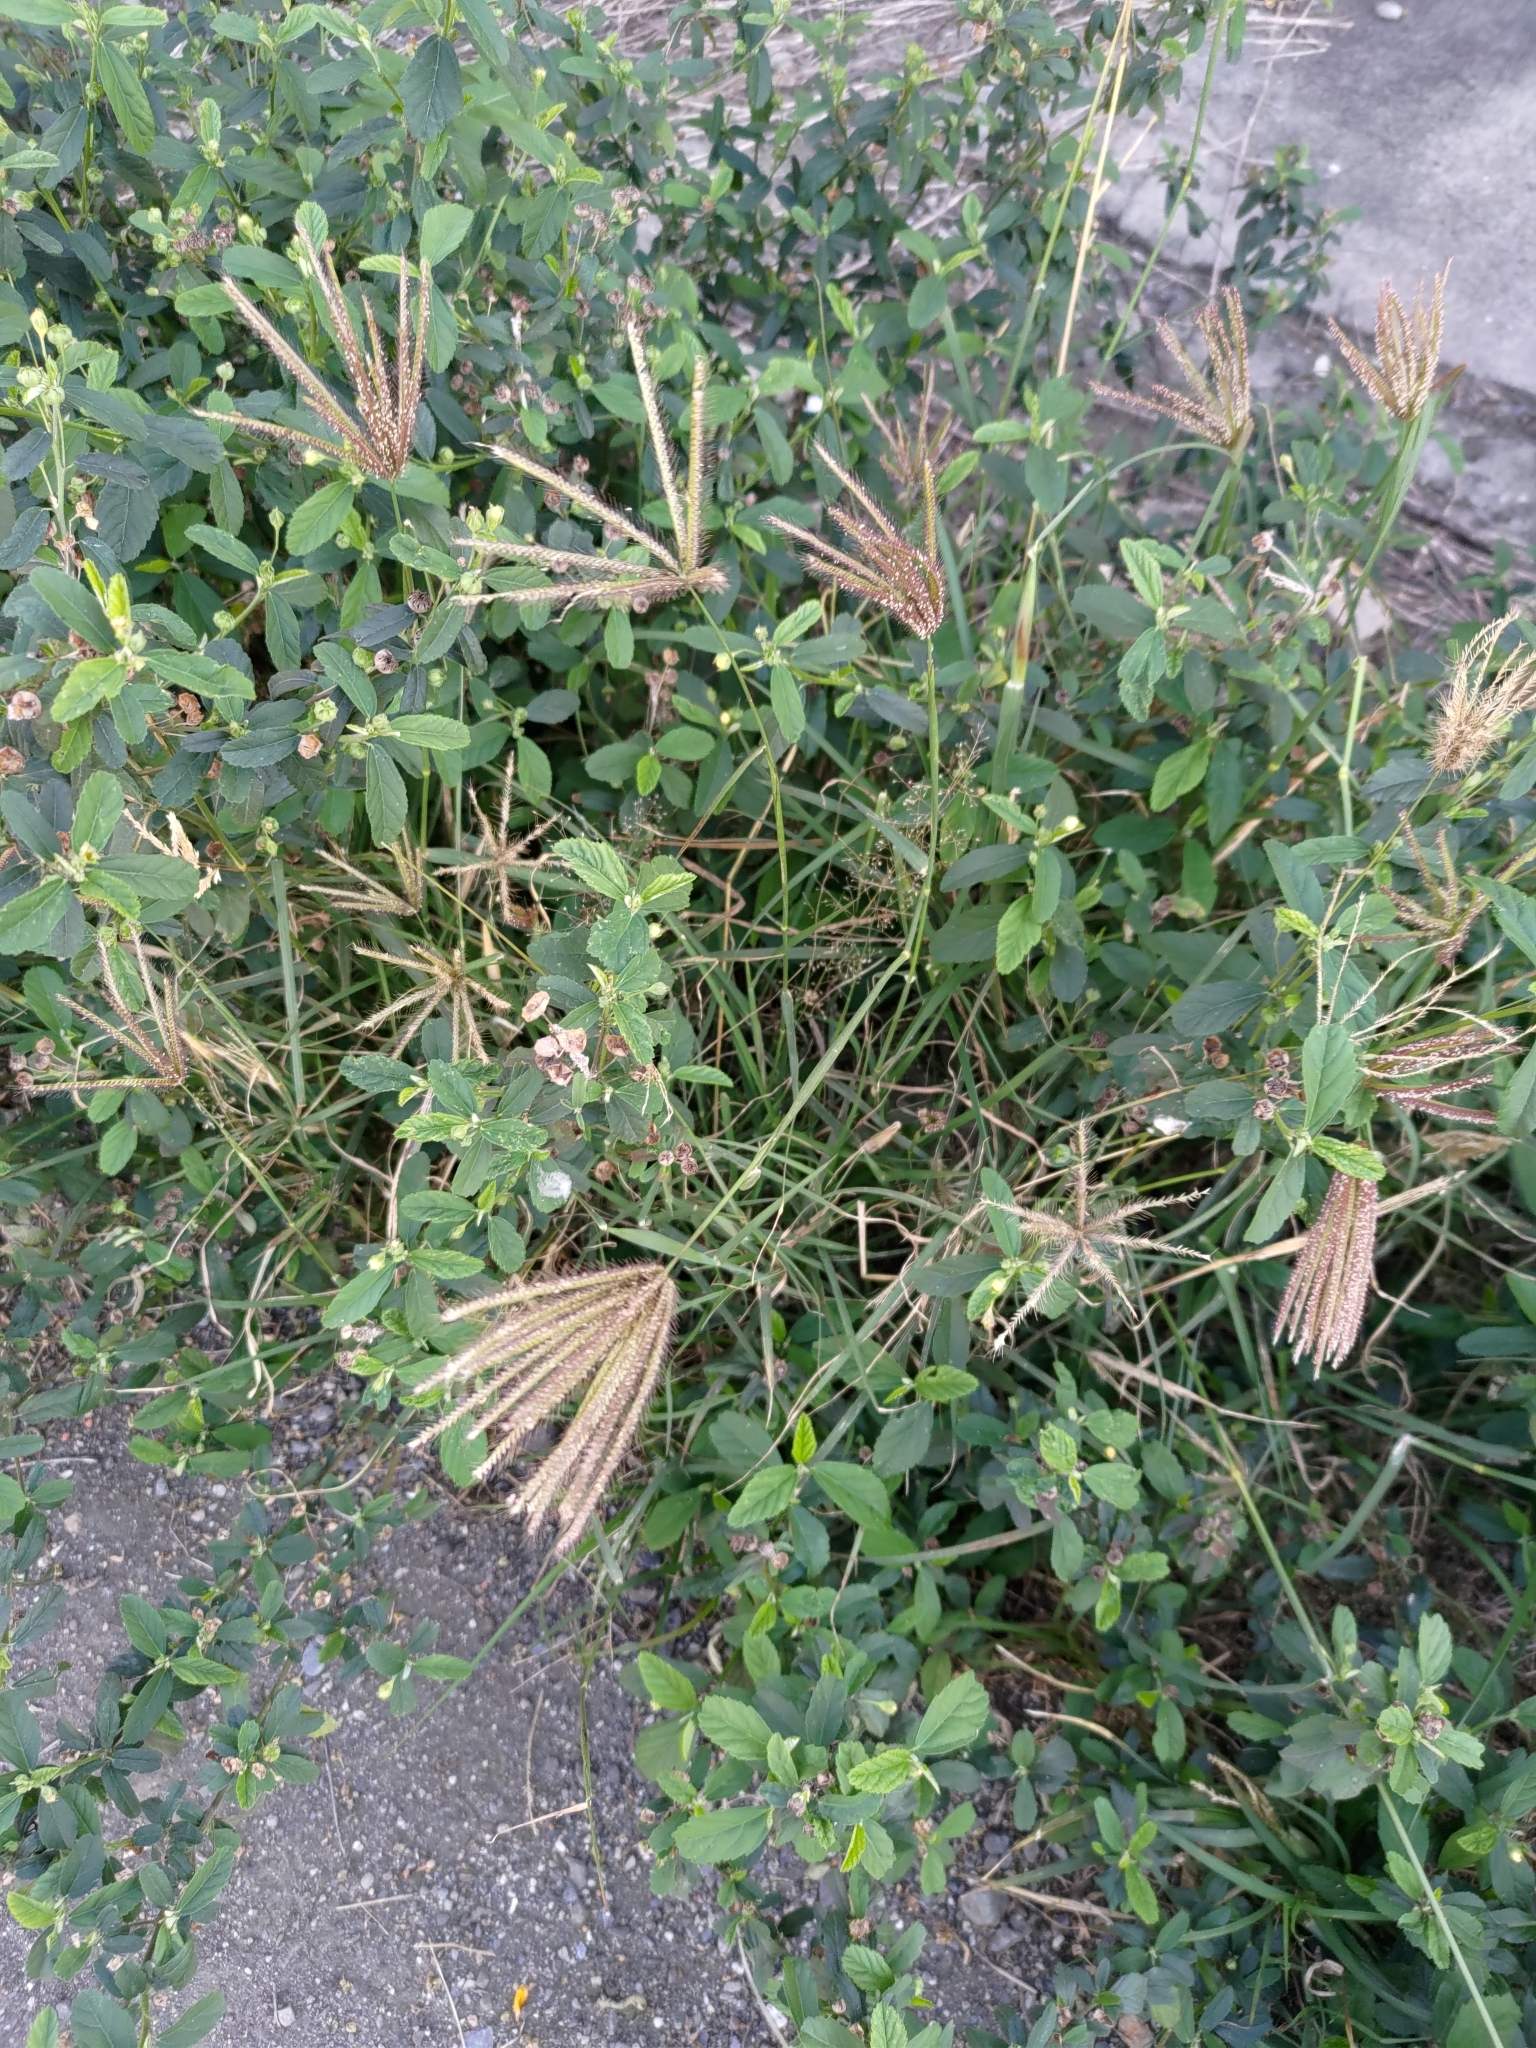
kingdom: Plantae
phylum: Tracheophyta
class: Liliopsida
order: Poales
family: Poaceae
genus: Chloris
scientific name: Chloris barbata
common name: Swollen fingergrass
